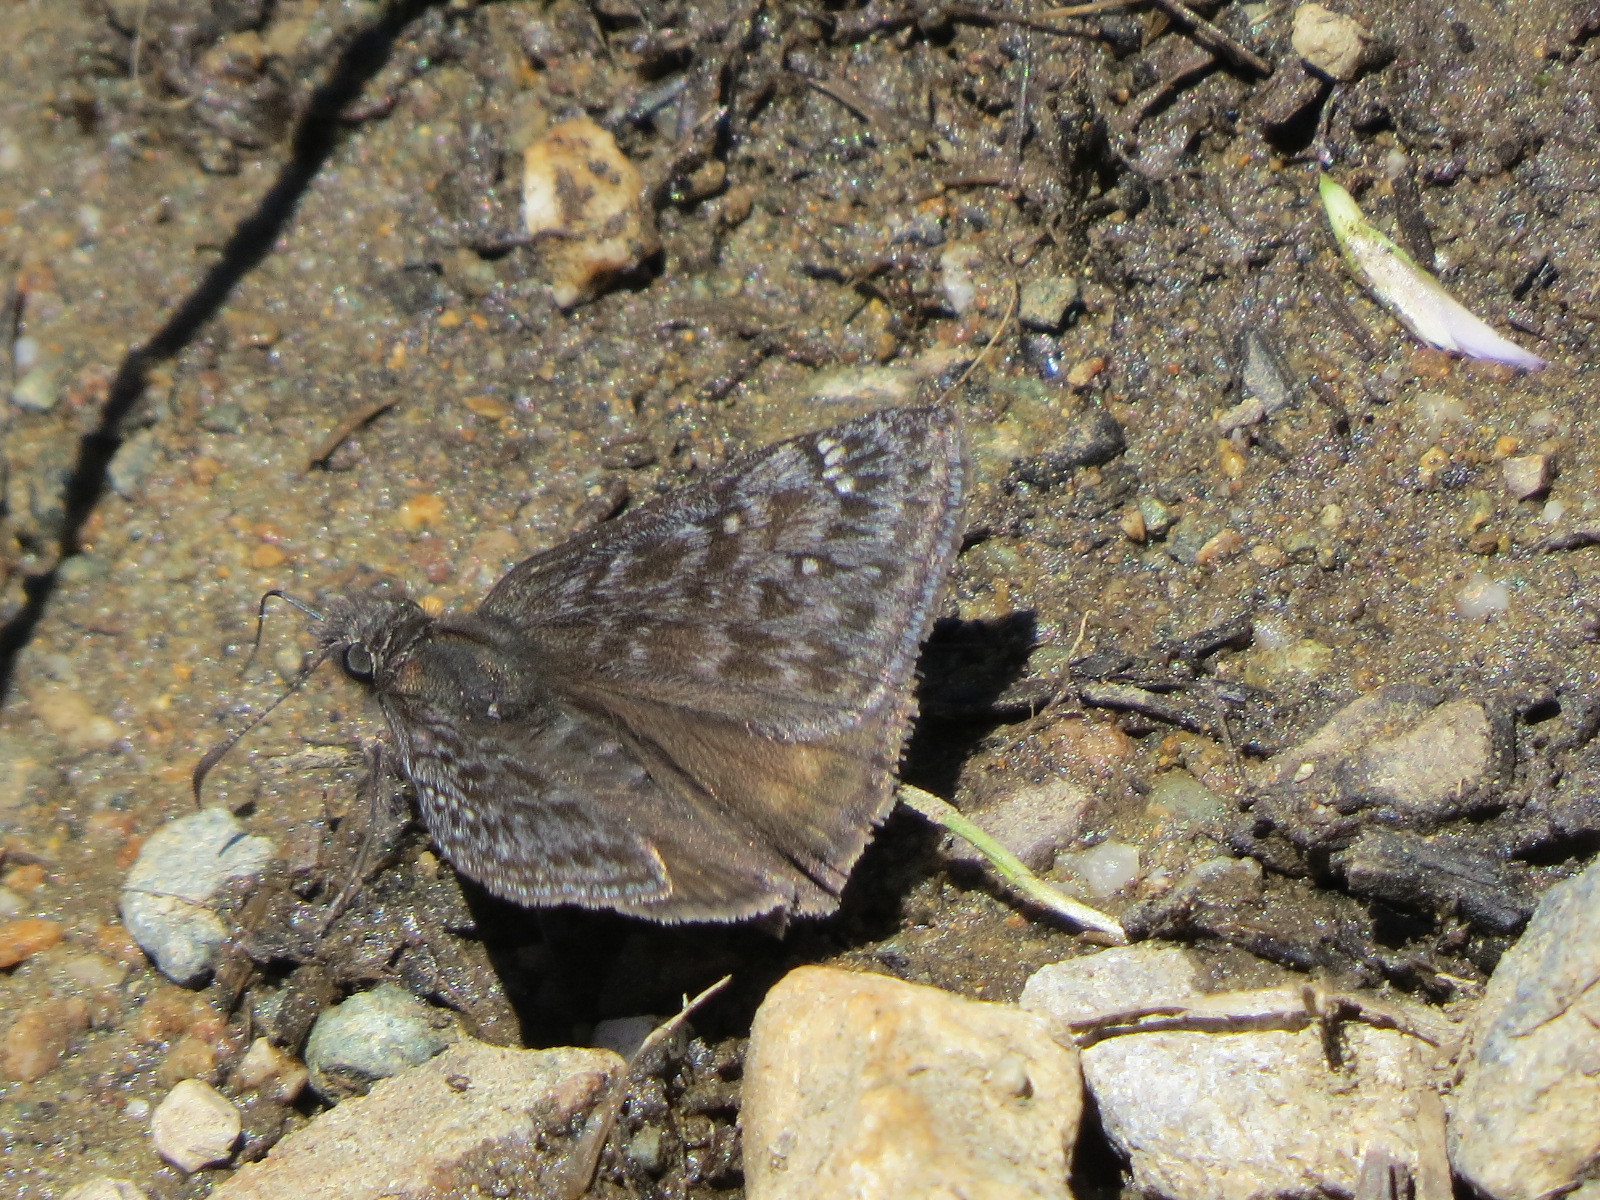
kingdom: Animalia
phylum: Arthropoda
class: Insecta
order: Lepidoptera
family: Hesperiidae
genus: Erynnis
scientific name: Erynnis propertius
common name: Propertius duskywing
